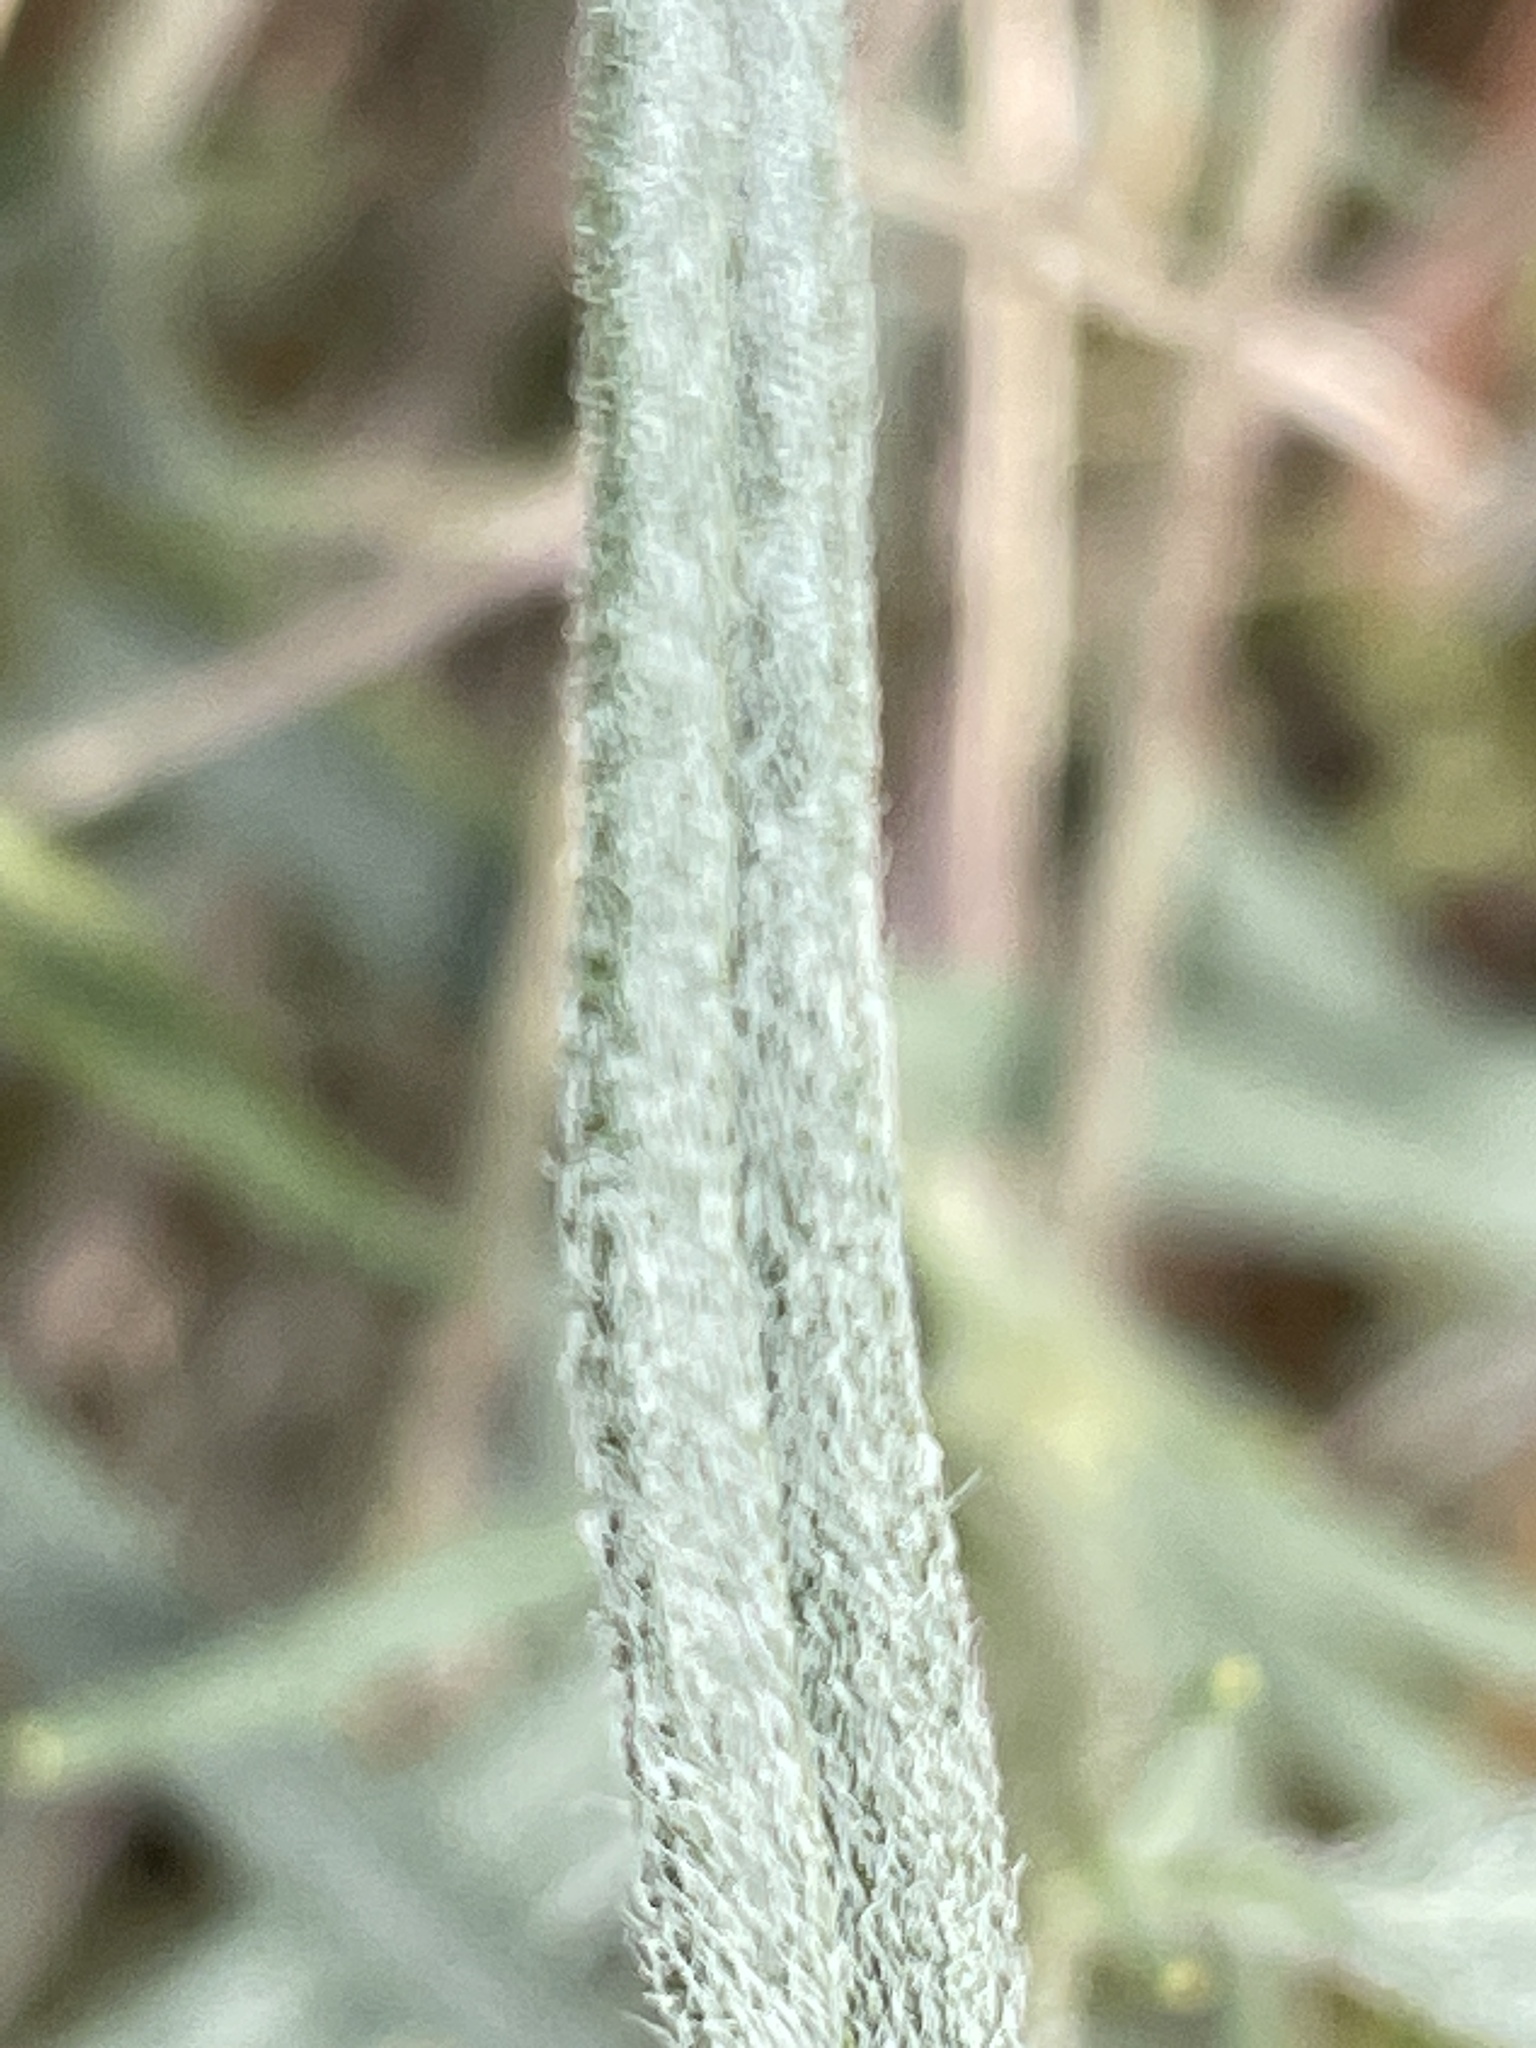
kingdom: Plantae
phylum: Tracheophyta
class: Magnoliopsida
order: Asterales
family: Asteraceae
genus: Palafoxia
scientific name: Palafoxia arida
